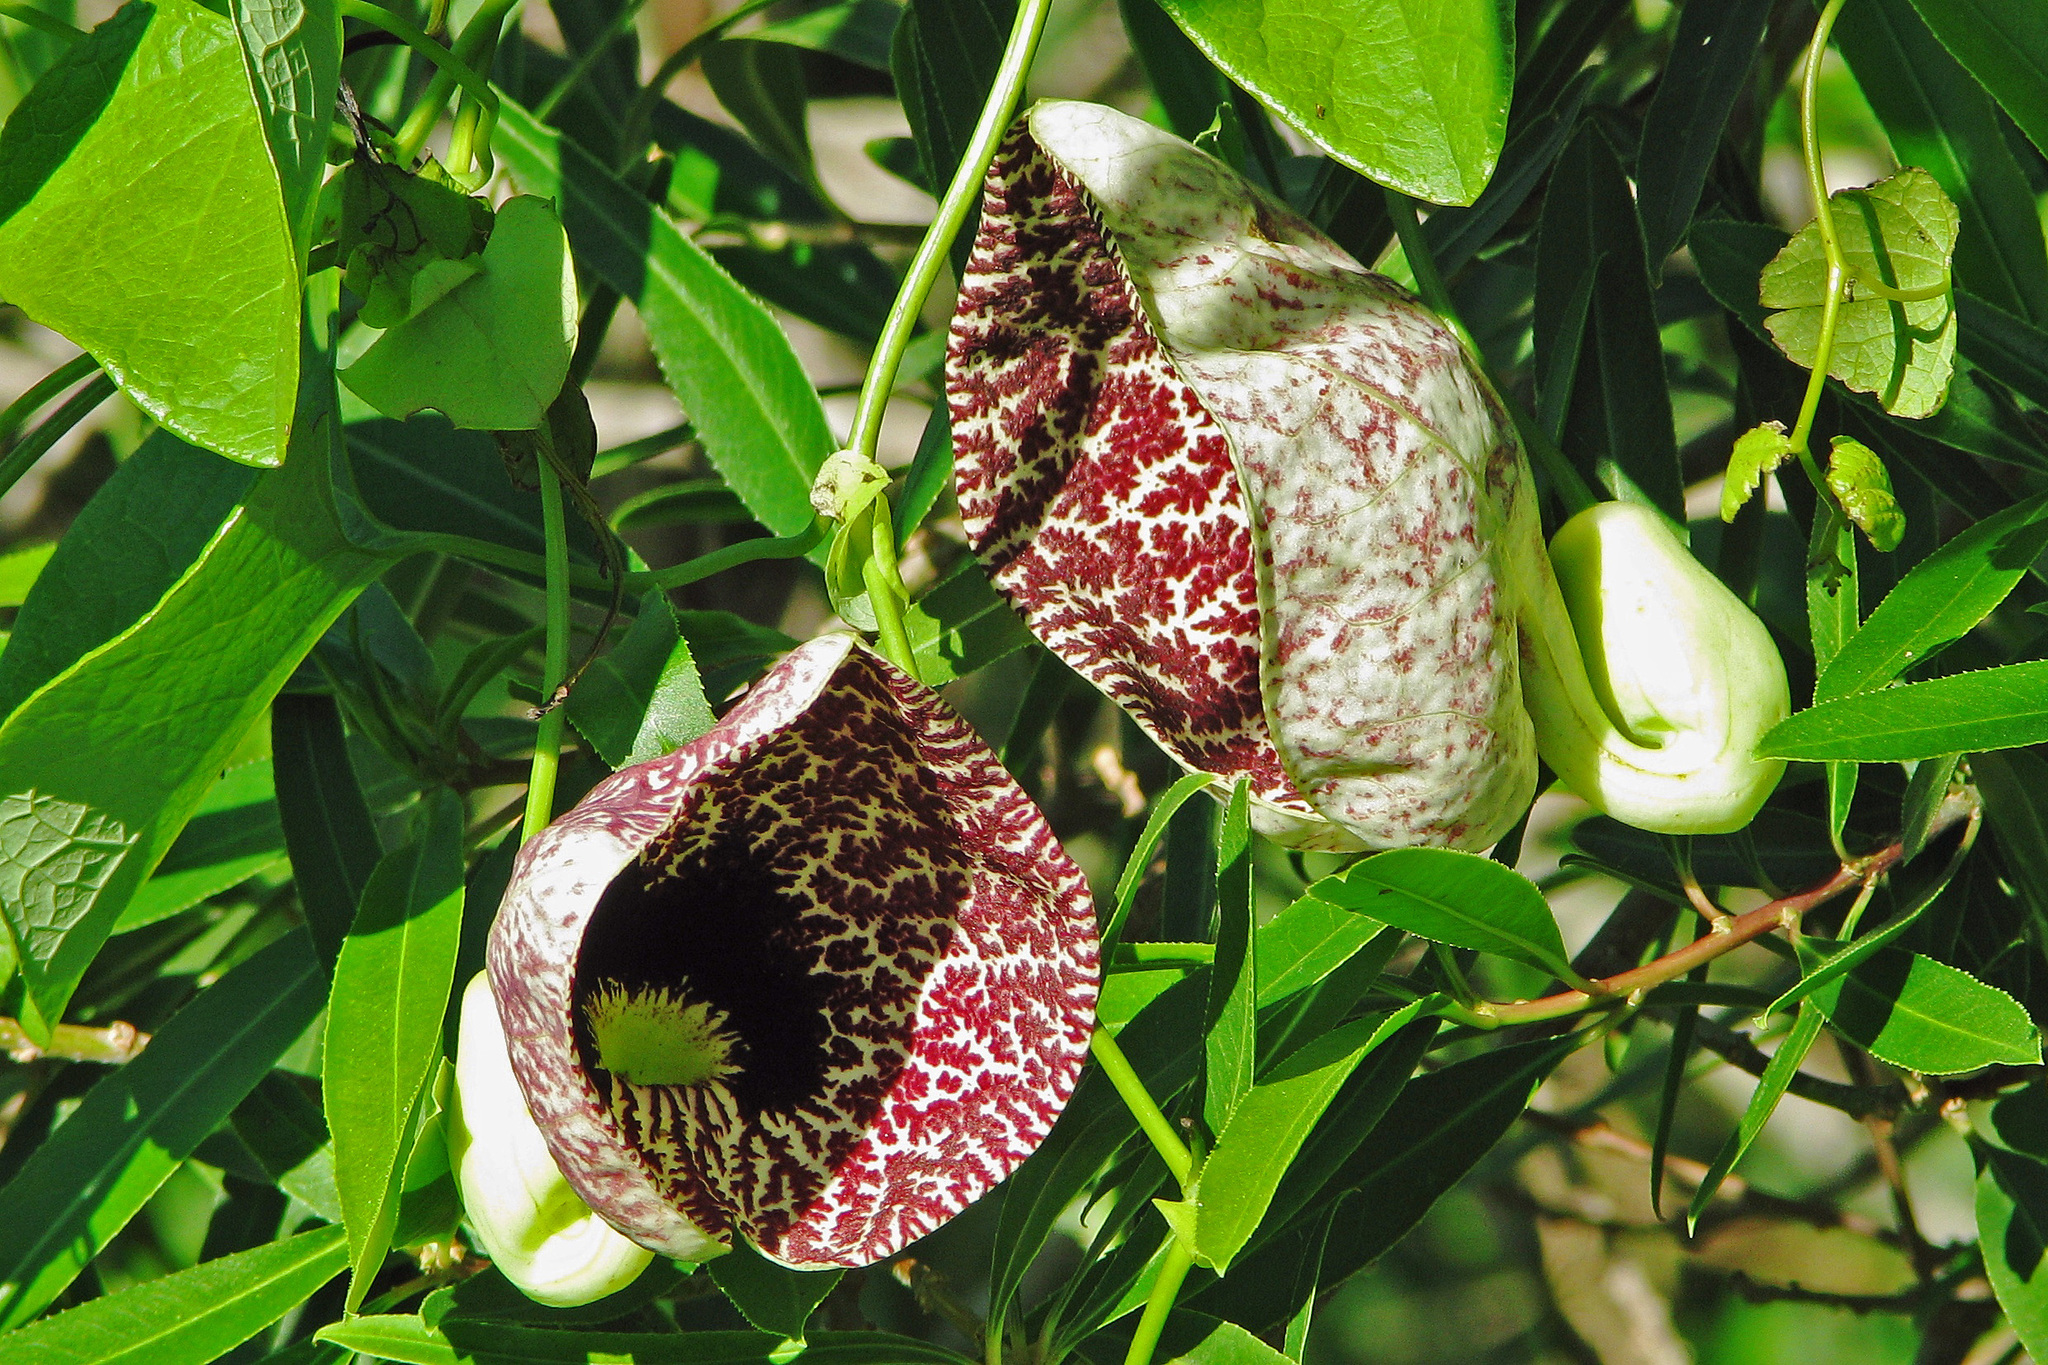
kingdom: Plantae
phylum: Tracheophyta
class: Magnoliopsida
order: Piperales
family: Aristolochiaceae
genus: Aristolochia
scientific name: Aristolochia littoralis
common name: Duck
